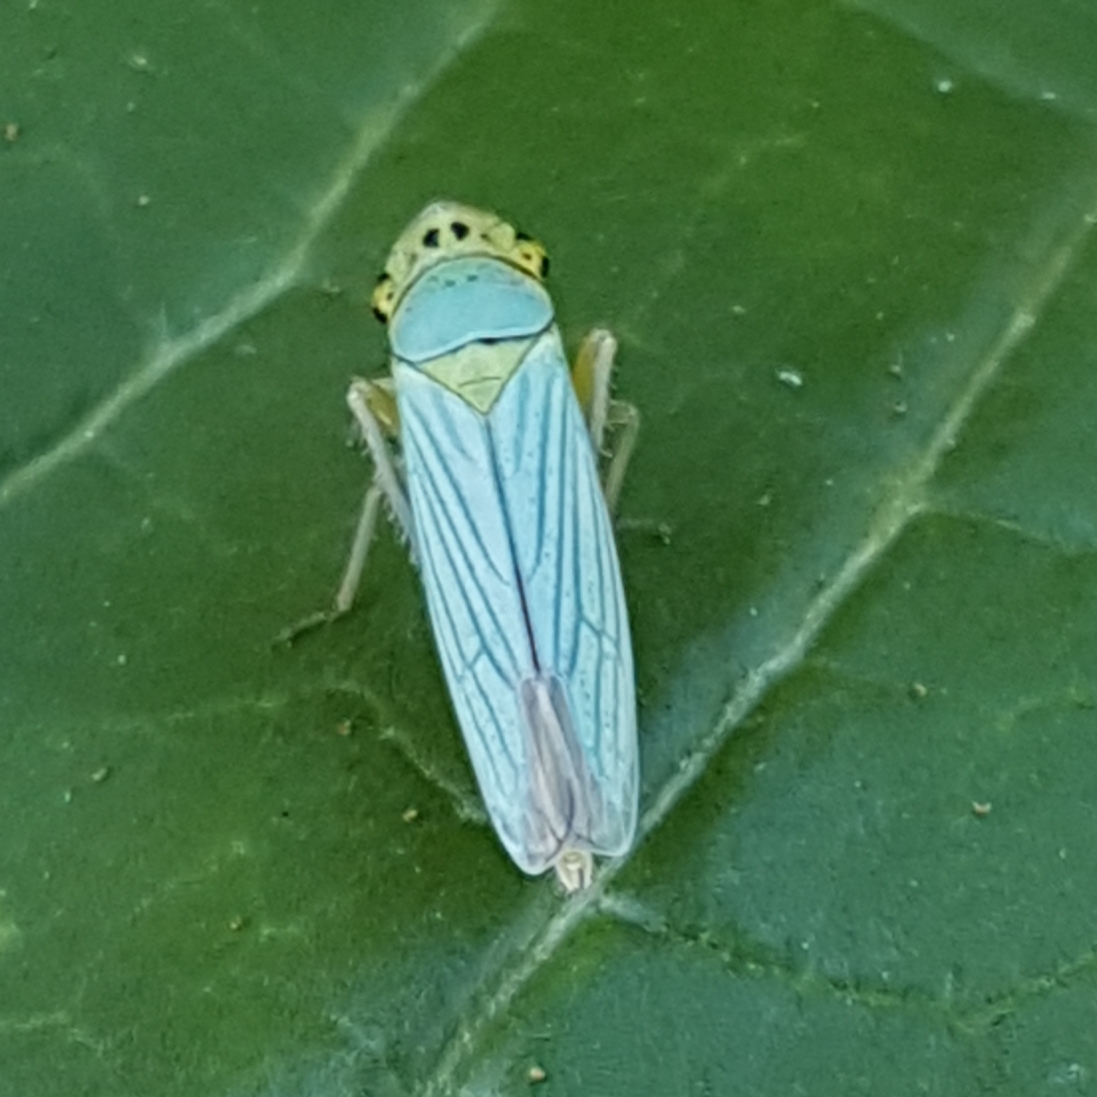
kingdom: Animalia
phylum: Arthropoda
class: Insecta
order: Hemiptera
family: Cicadellidae
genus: Cicadella
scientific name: Cicadella viridis
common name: Leafhopper
